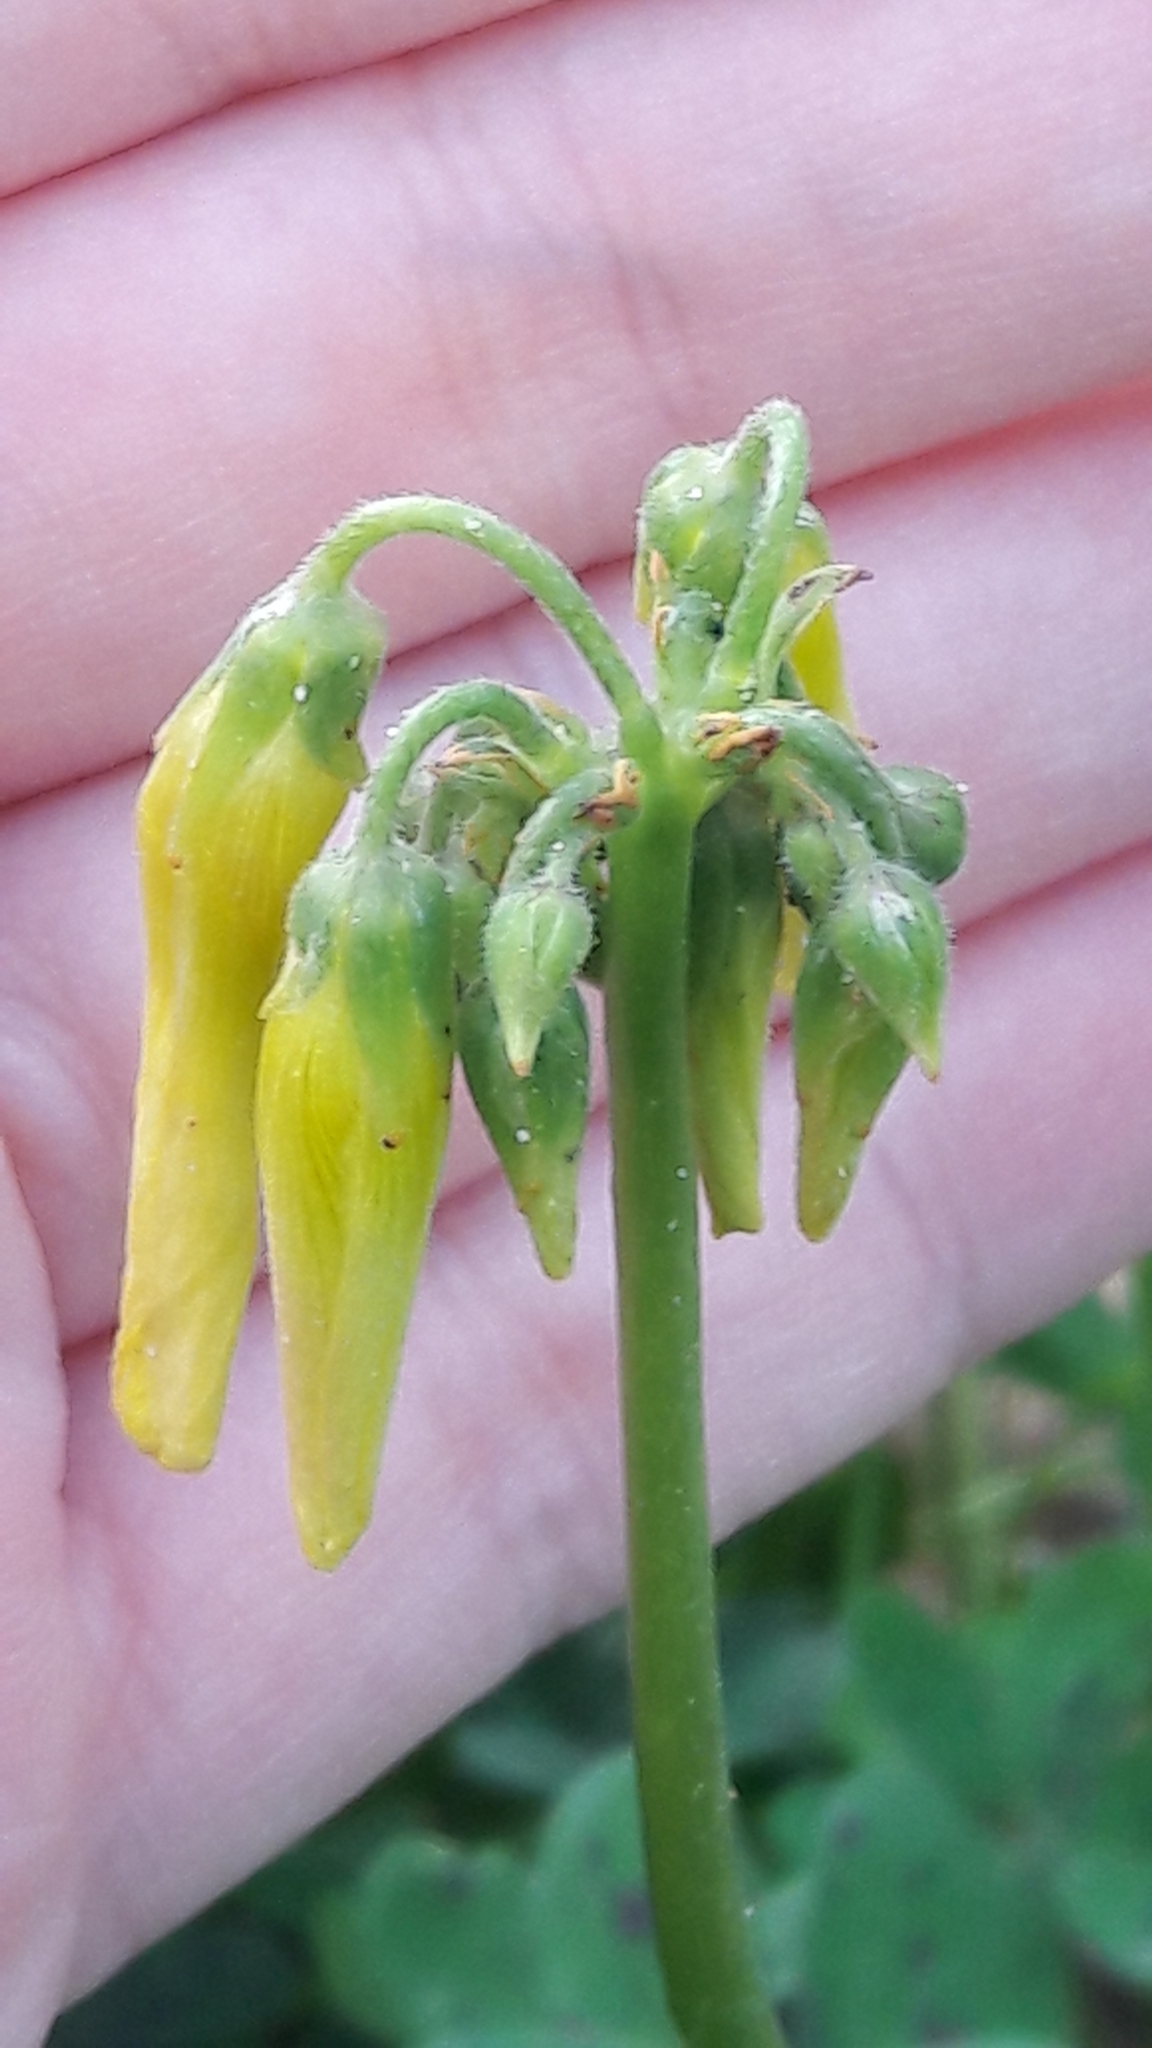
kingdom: Plantae
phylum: Tracheophyta
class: Magnoliopsida
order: Oxalidales
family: Oxalidaceae
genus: Oxalis
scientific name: Oxalis pes-caprae
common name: Bermuda-buttercup
